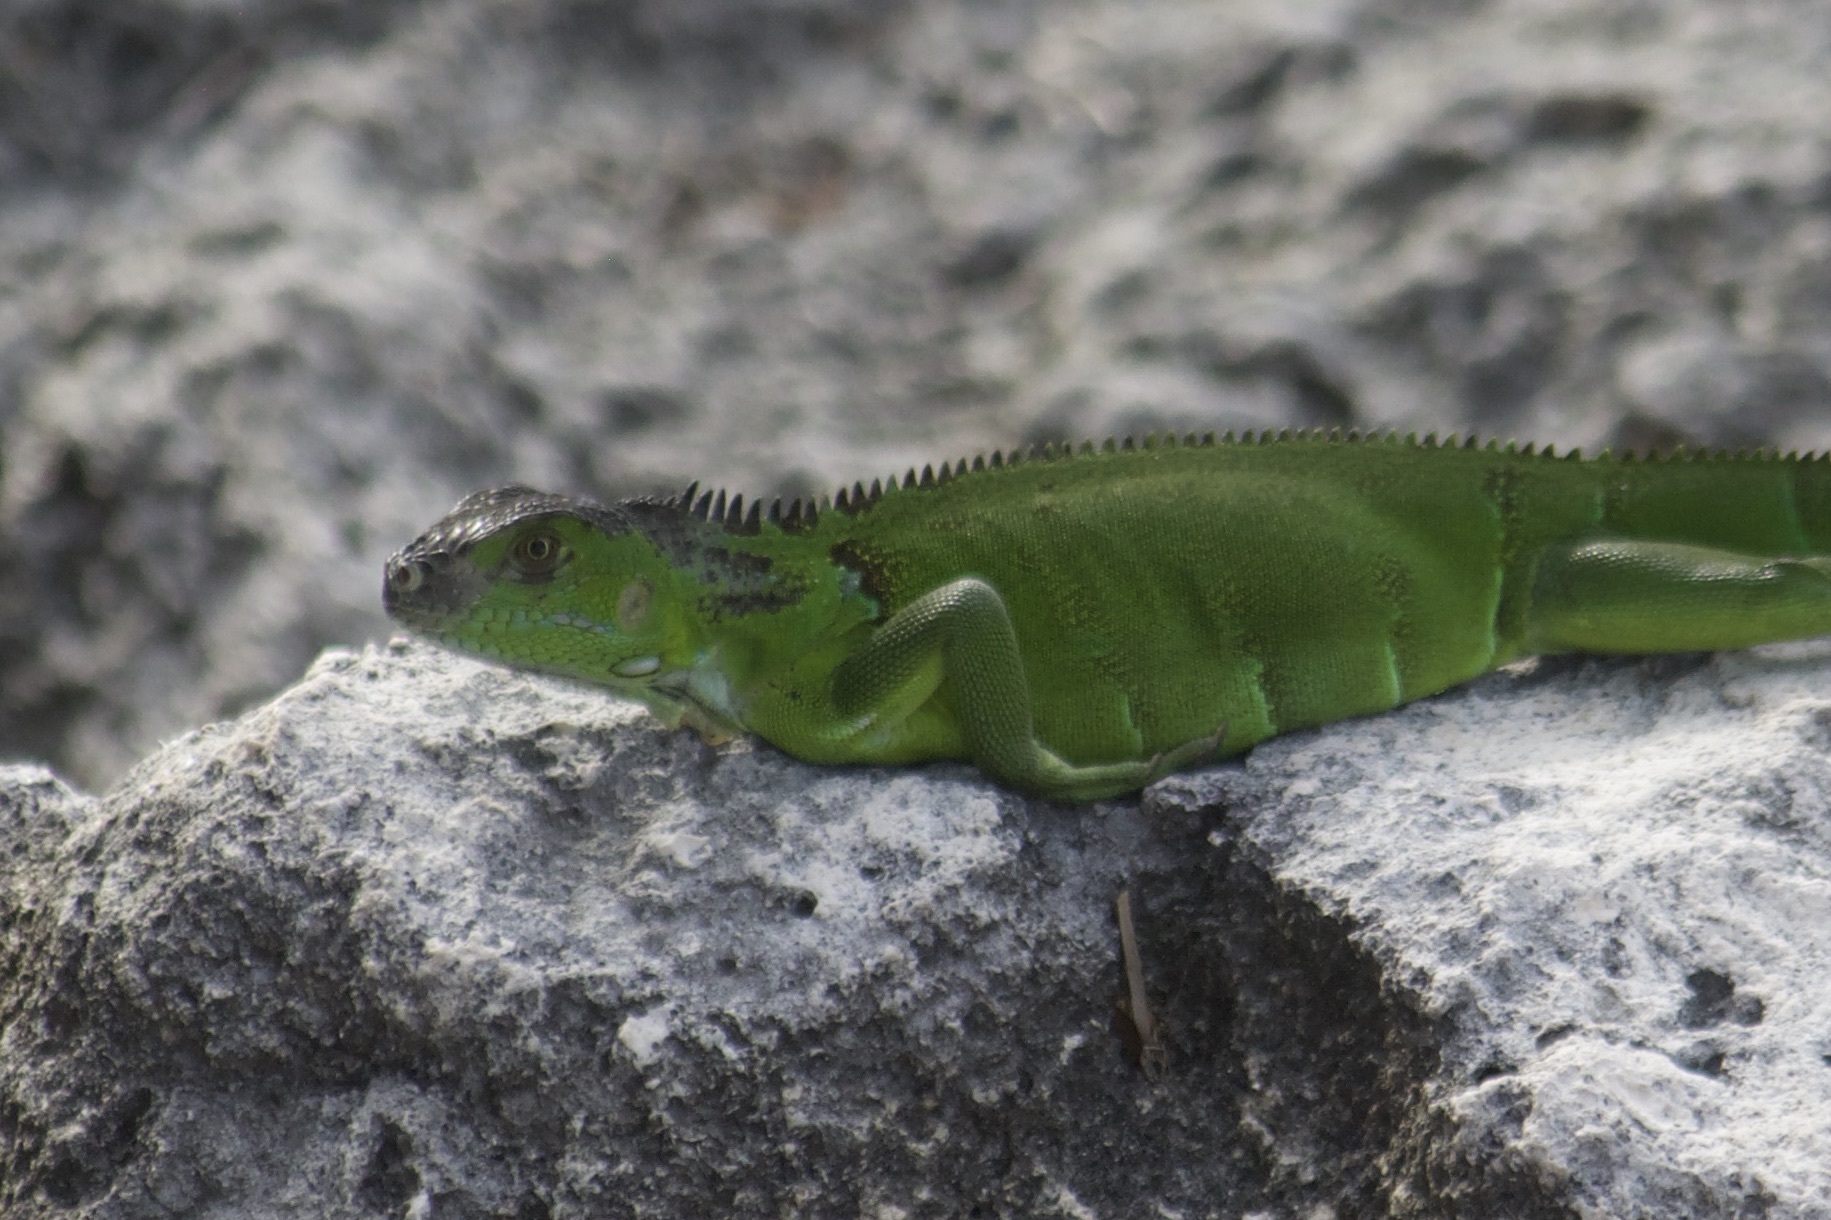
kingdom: Animalia
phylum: Chordata
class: Squamata
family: Iguanidae
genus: Iguana
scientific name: Iguana iguana
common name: Green iguana
